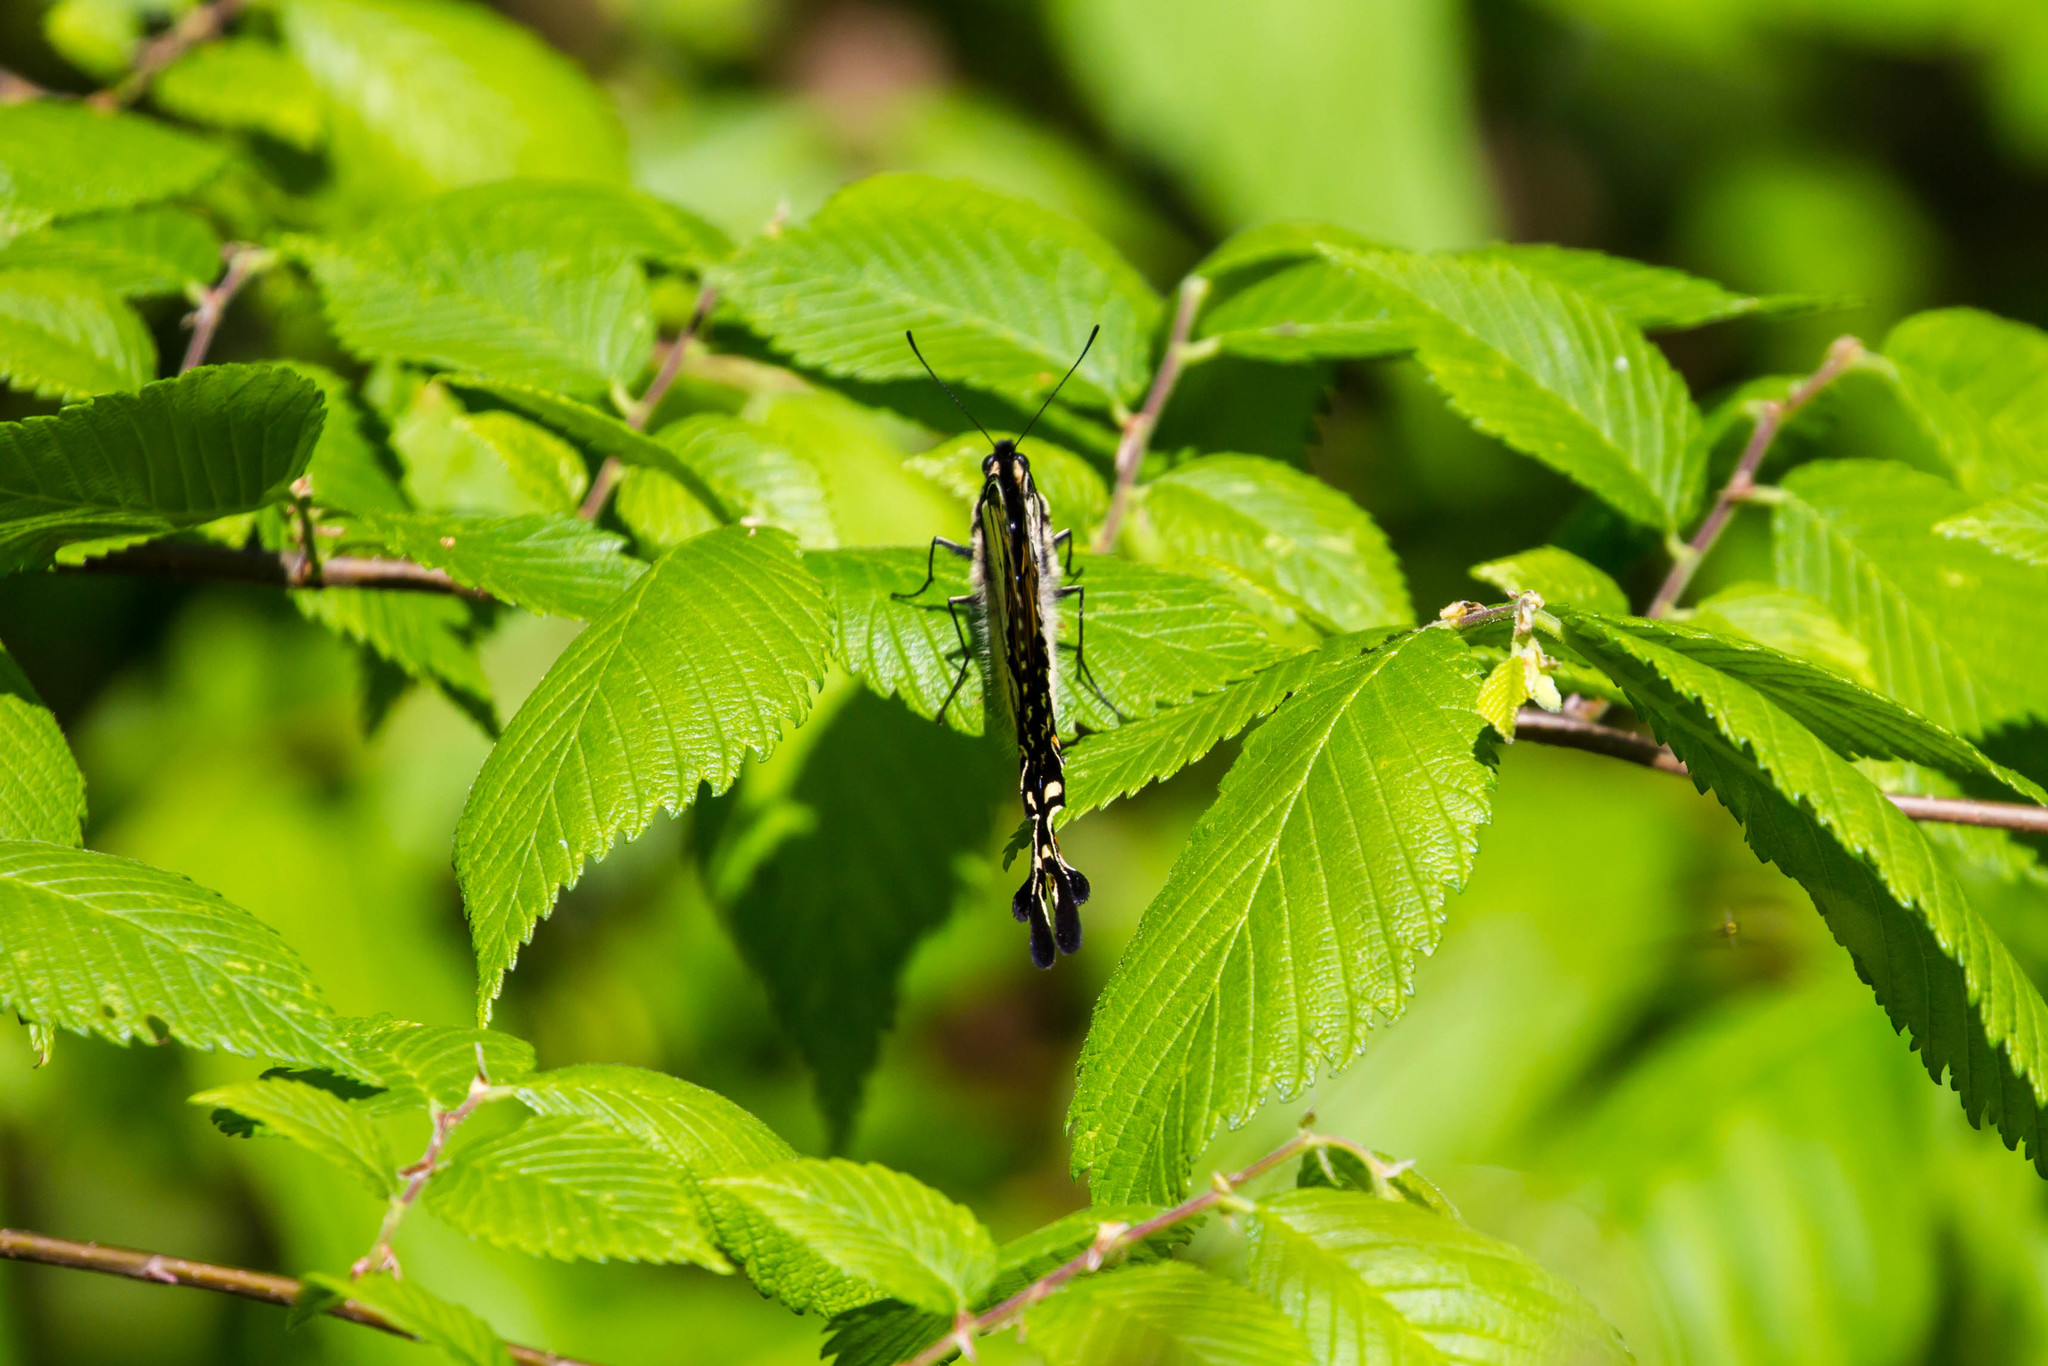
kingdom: Animalia
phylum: Arthropoda
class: Insecta
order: Lepidoptera
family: Papilionidae
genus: Papilio
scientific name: Papilio glaucus
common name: Tiger swallowtail
